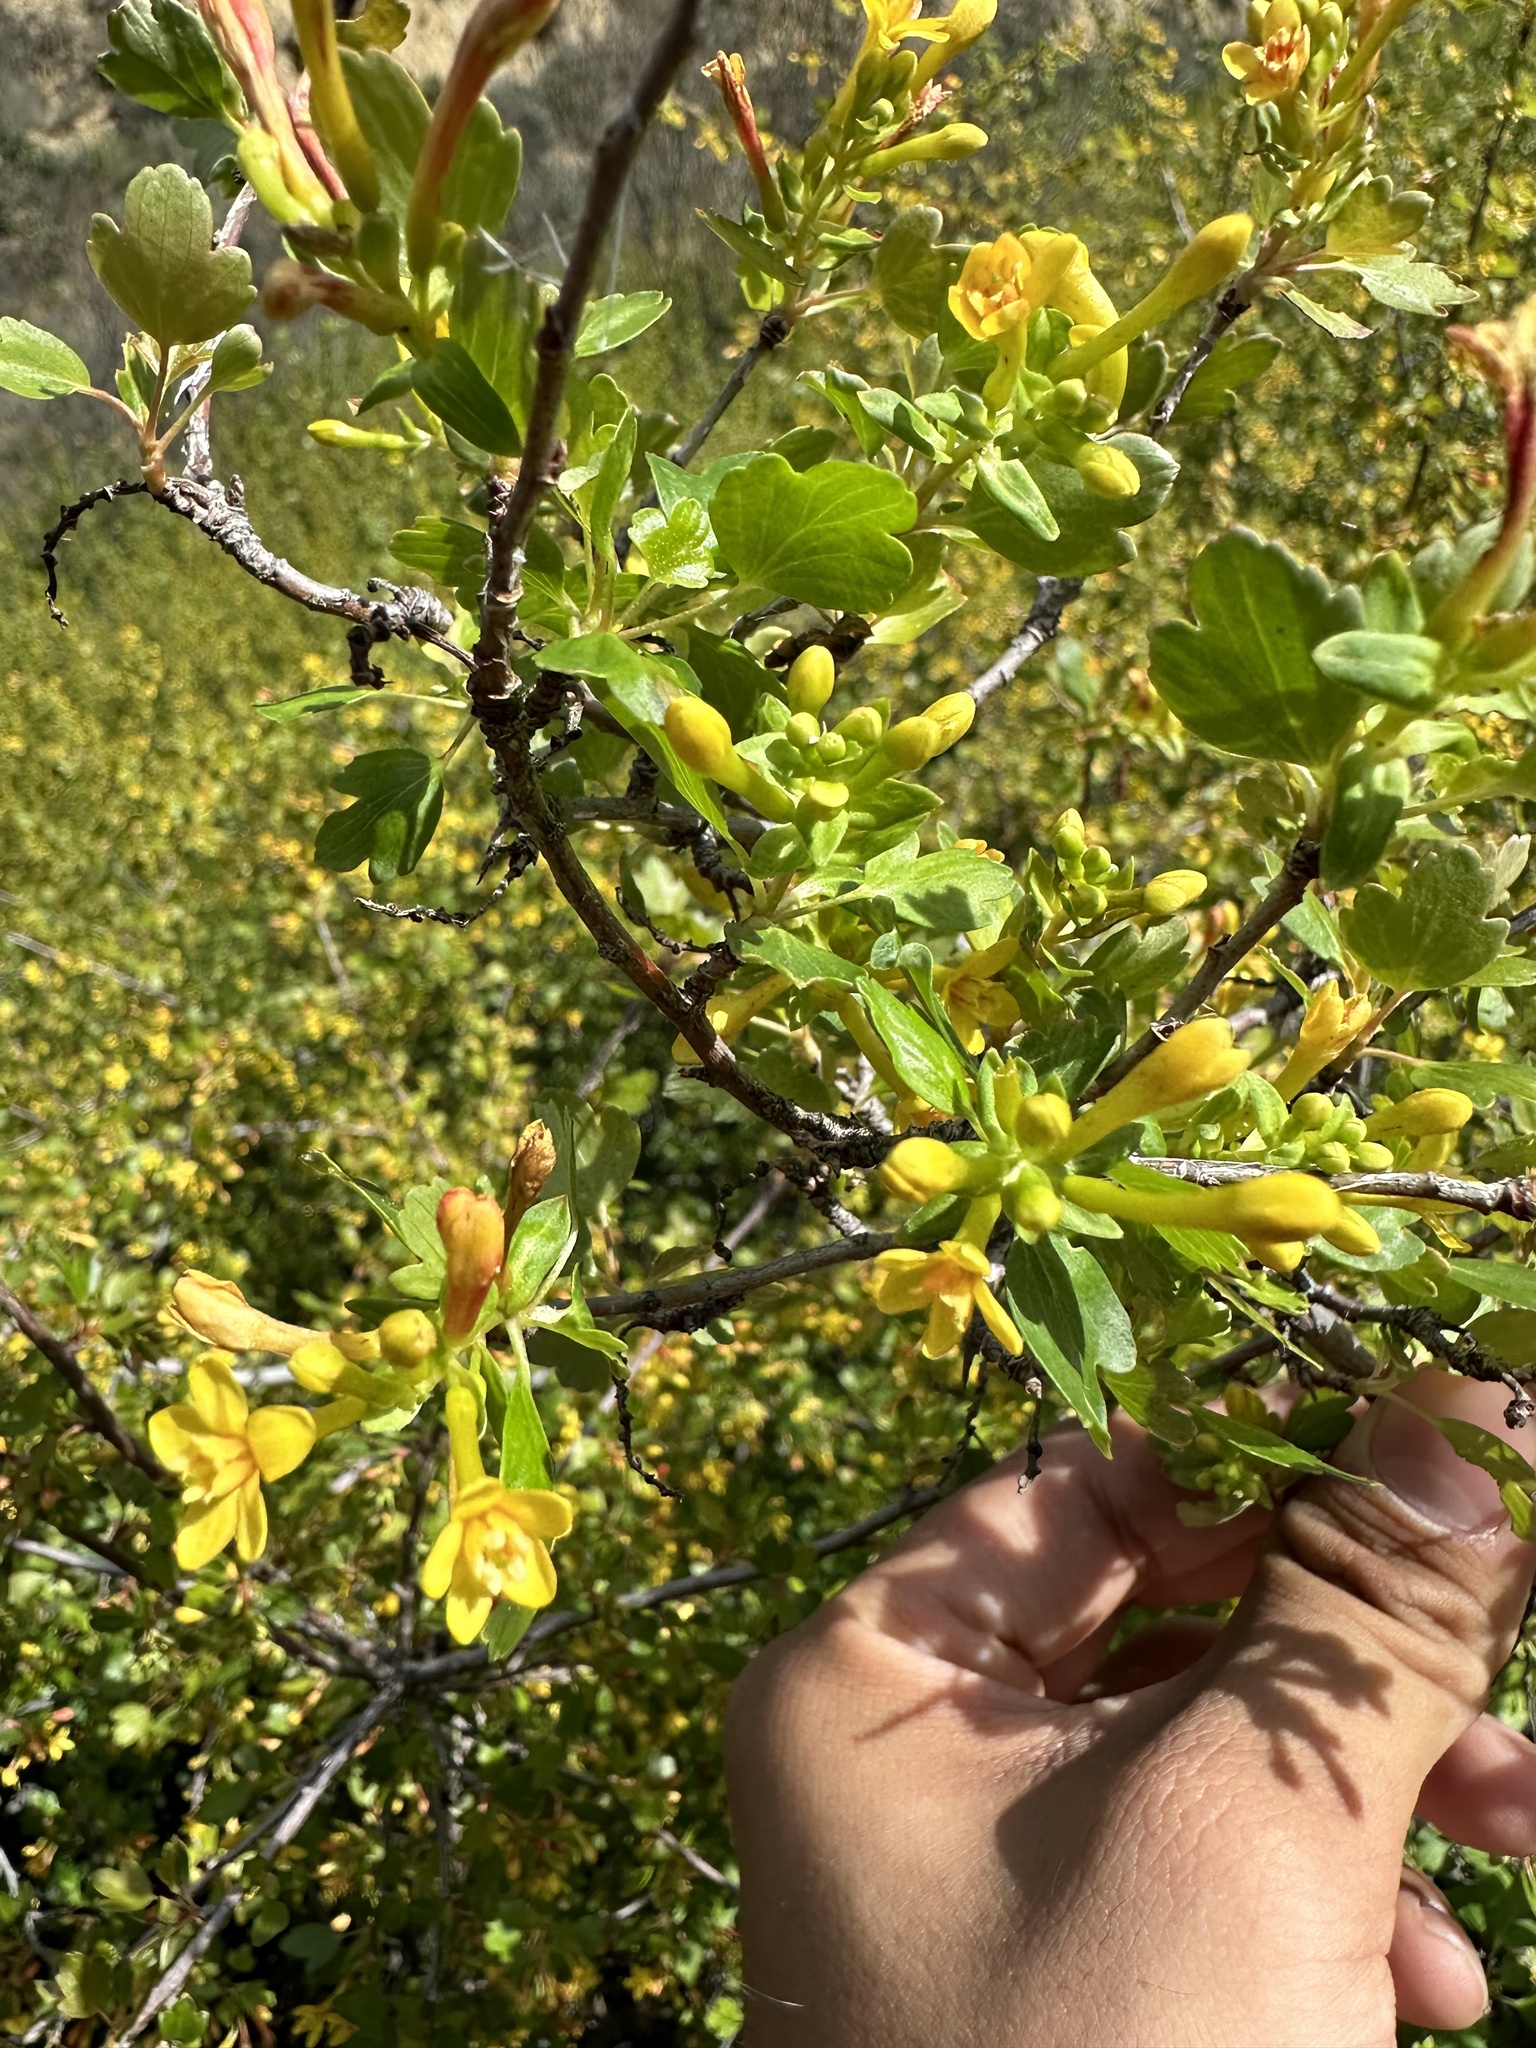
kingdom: Plantae
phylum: Tracheophyta
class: Magnoliopsida
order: Saxifragales
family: Grossulariaceae
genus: Ribes
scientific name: Ribes aureum
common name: Golden currant
